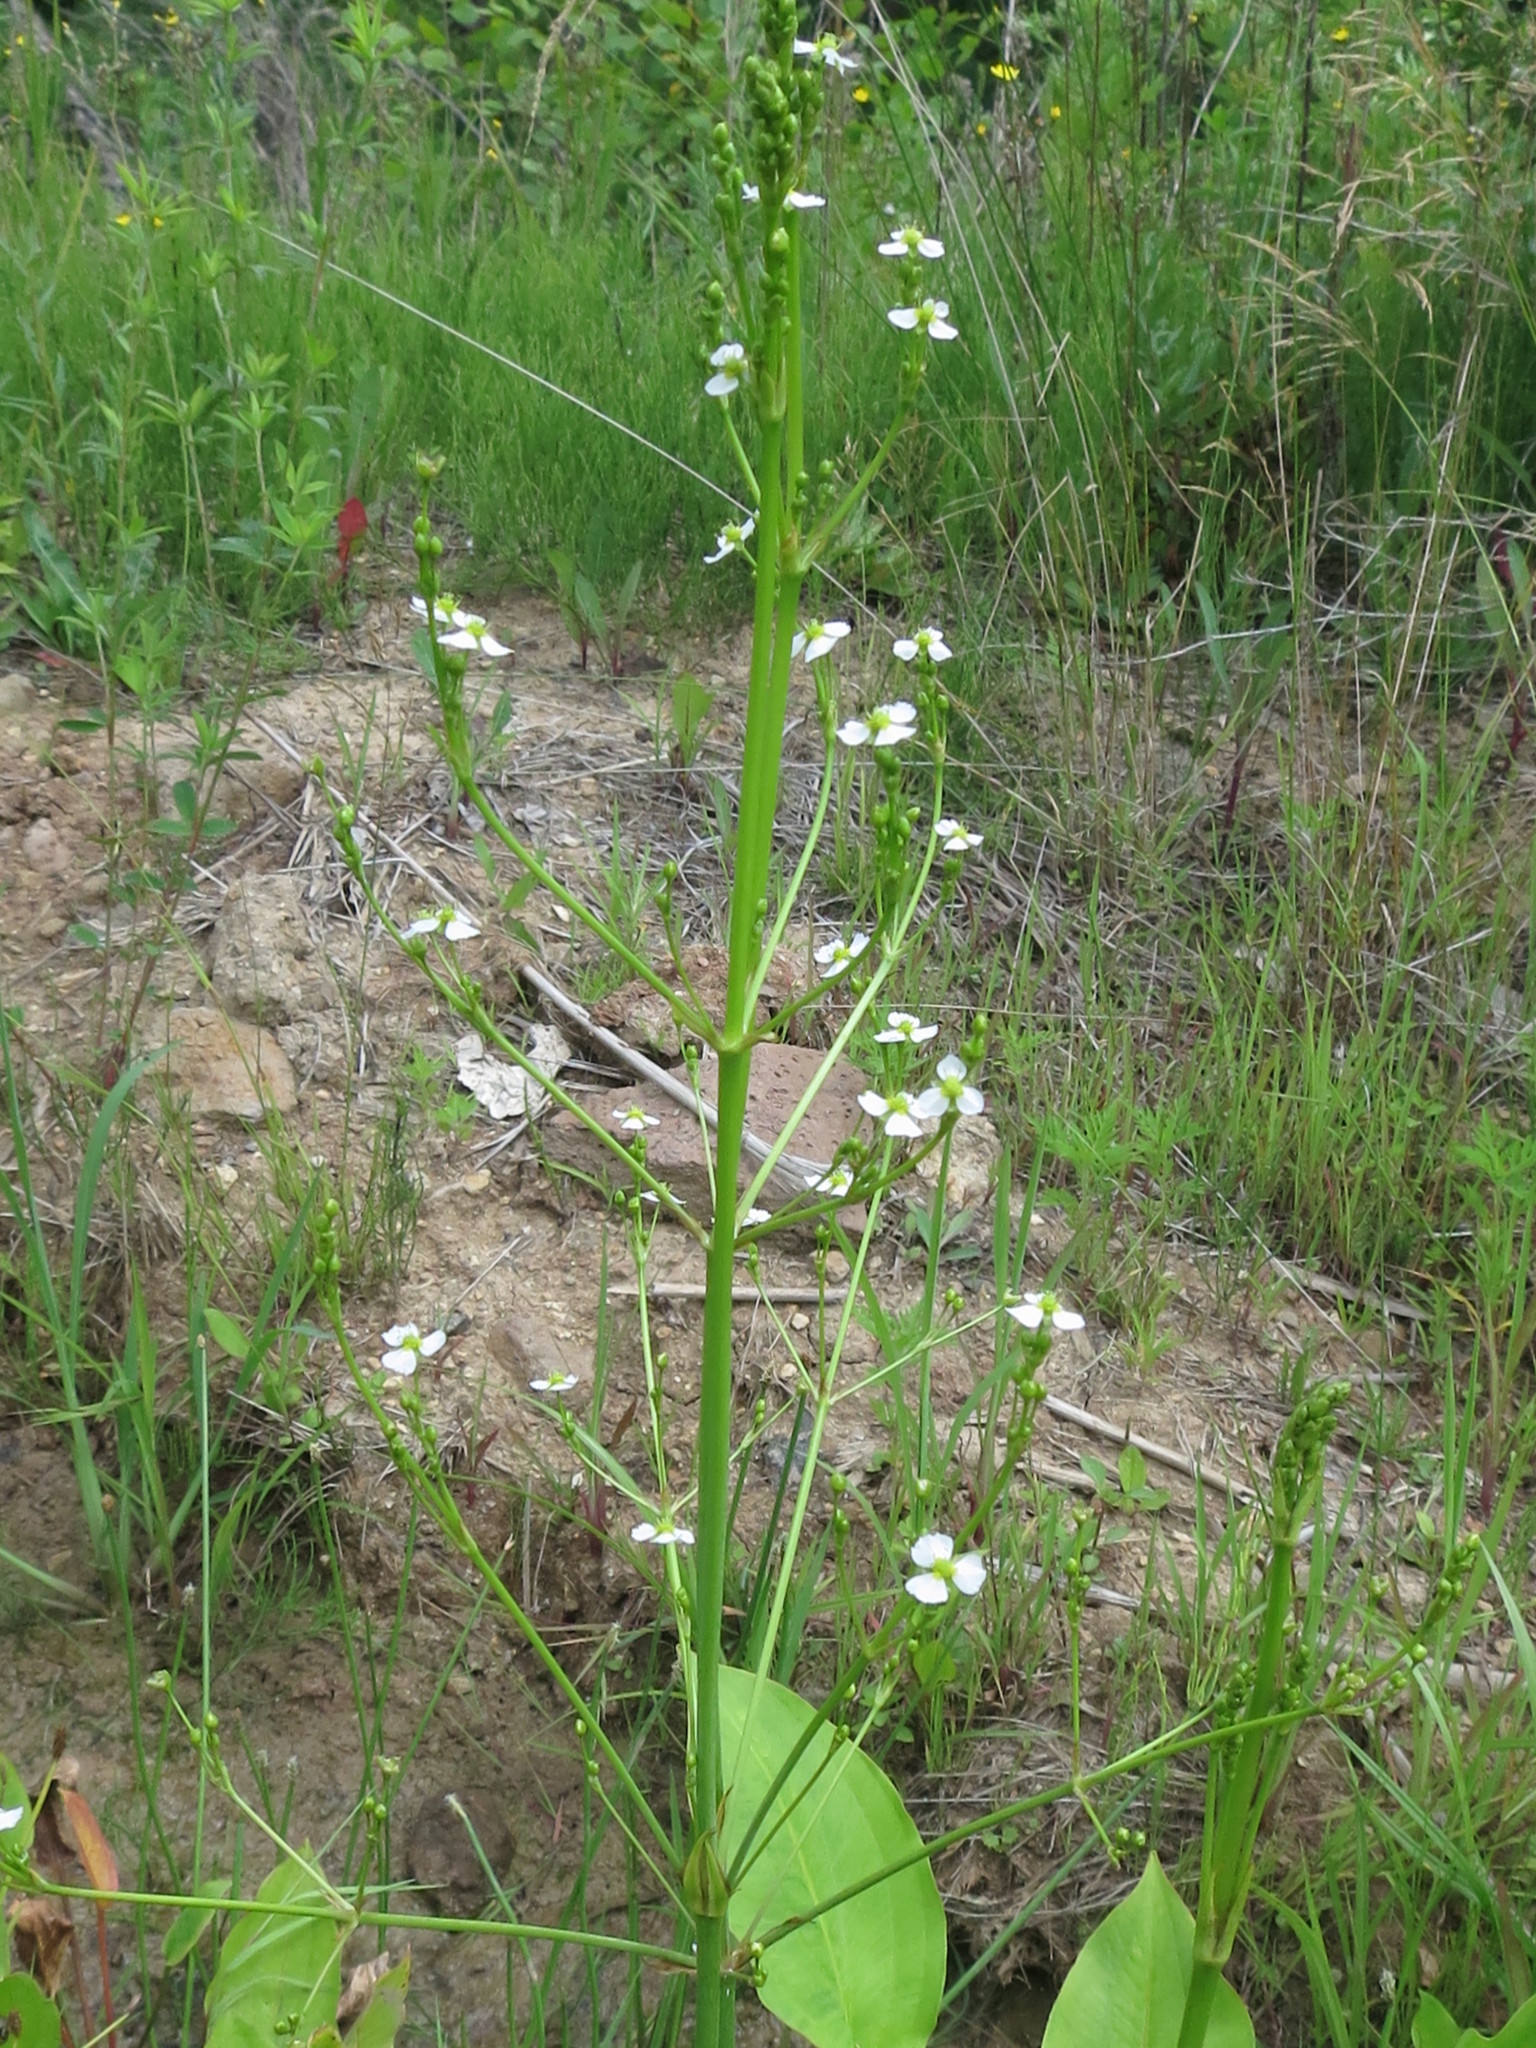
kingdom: Plantae
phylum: Tracheophyta
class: Liliopsida
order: Alismatales
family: Alismataceae
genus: Alisma
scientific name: Alisma plantago-aquatica
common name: Water-plantain
